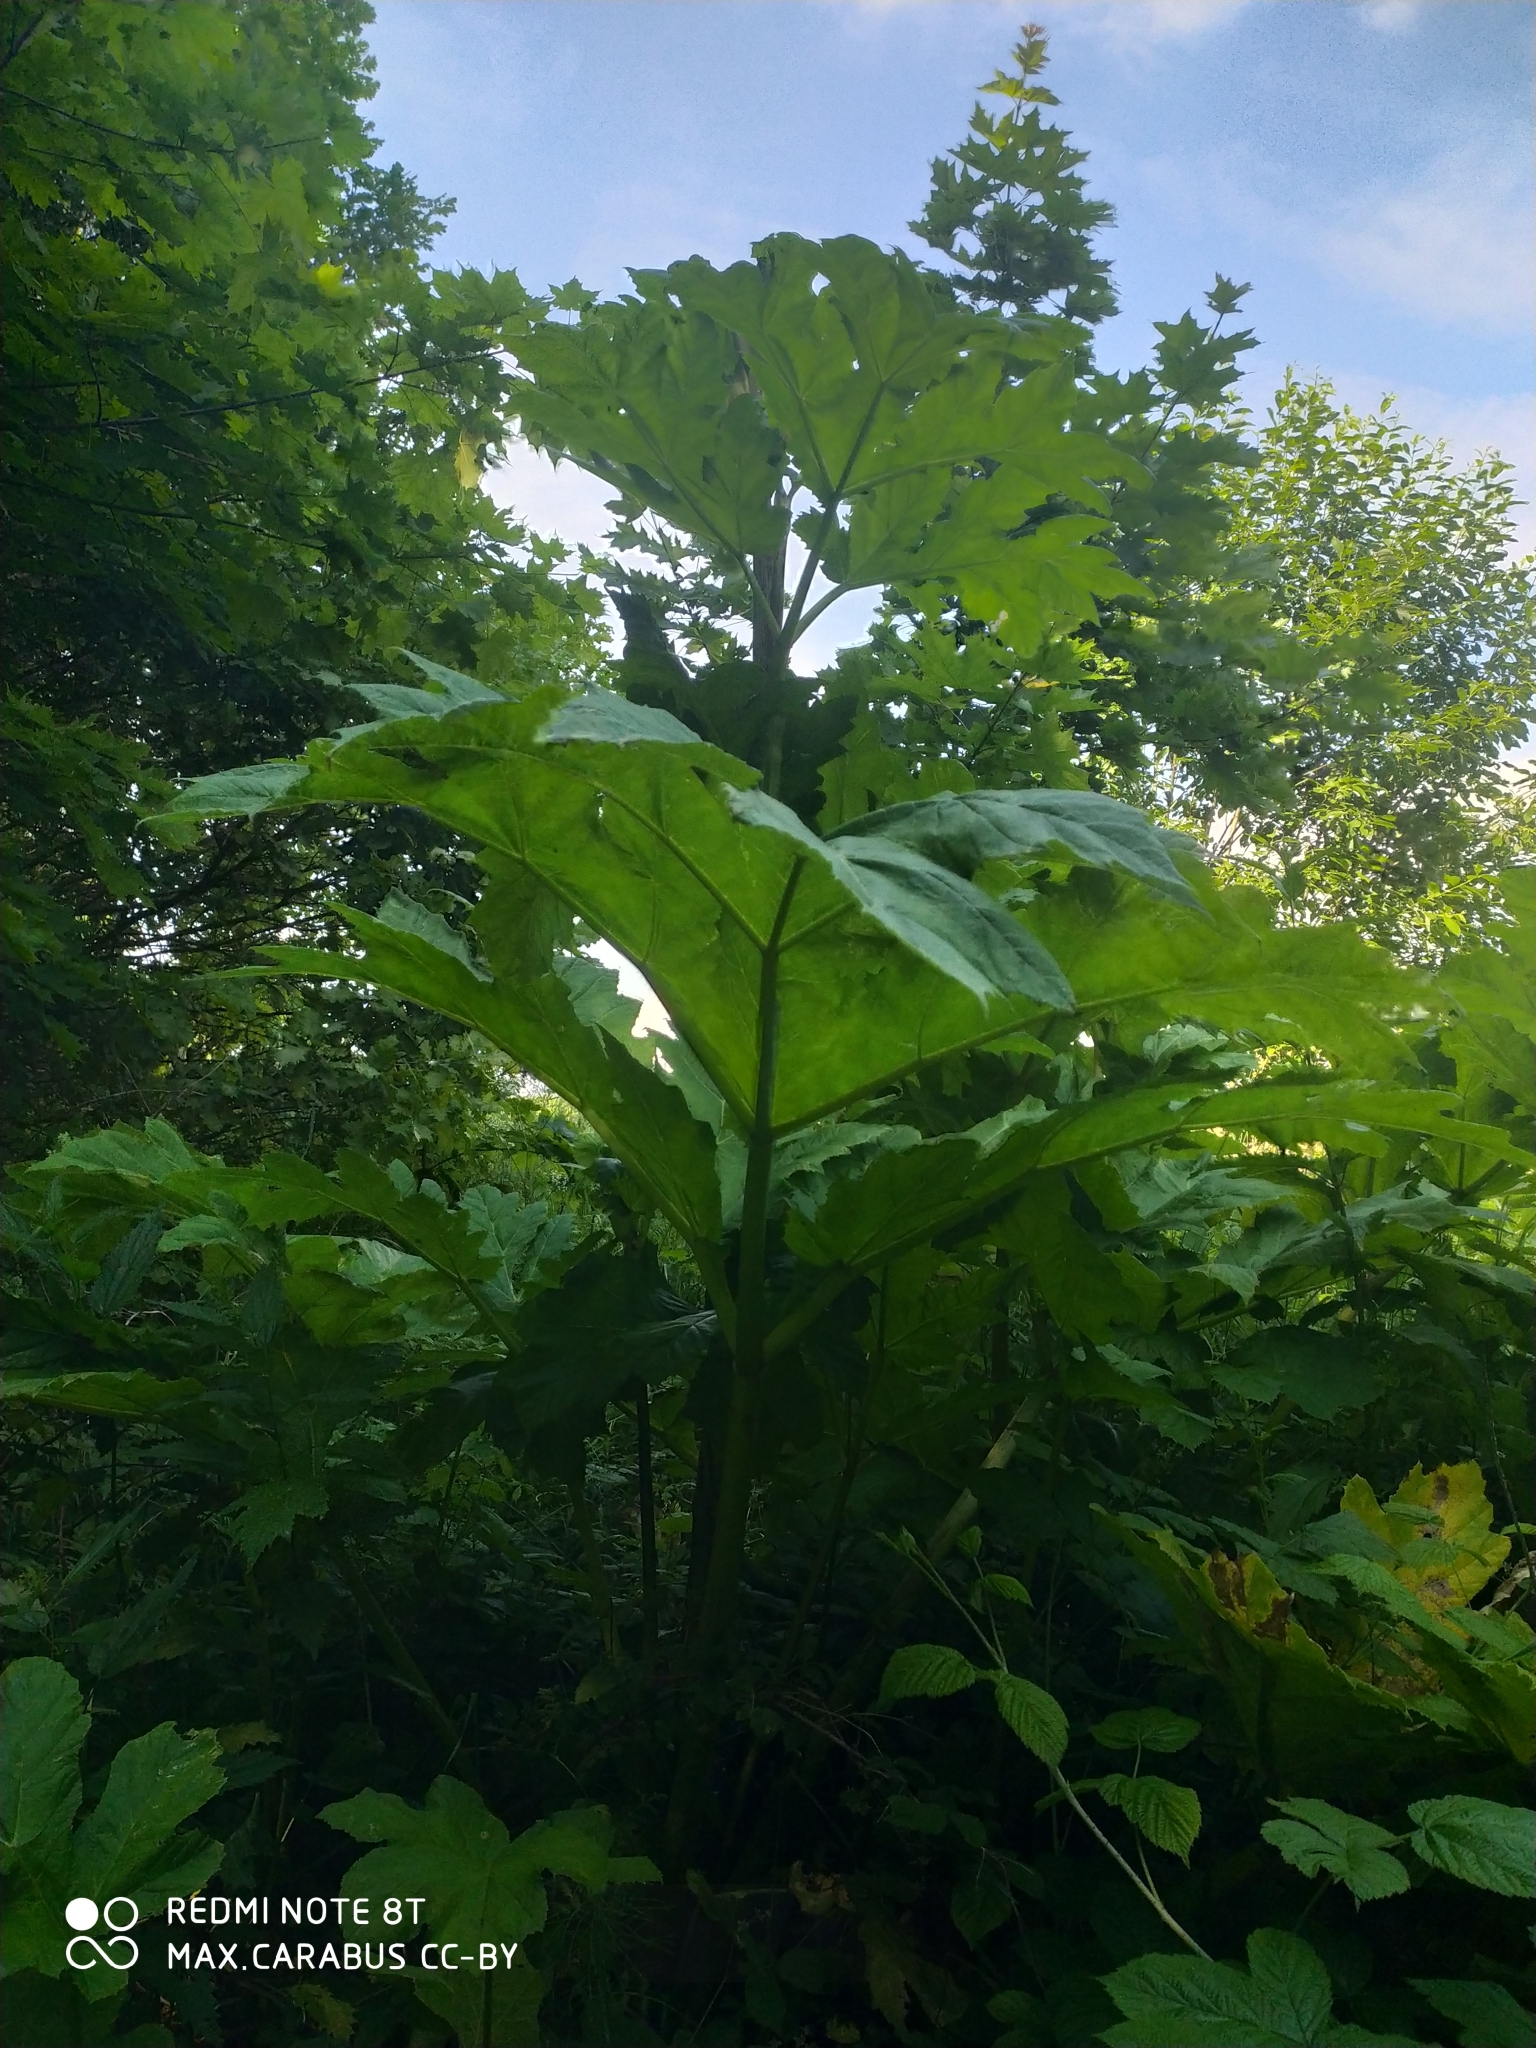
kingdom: Plantae
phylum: Tracheophyta
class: Magnoliopsida
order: Apiales
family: Apiaceae
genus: Heracleum
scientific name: Heracleum sosnowskyi
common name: Sosnowsky's hogweed
